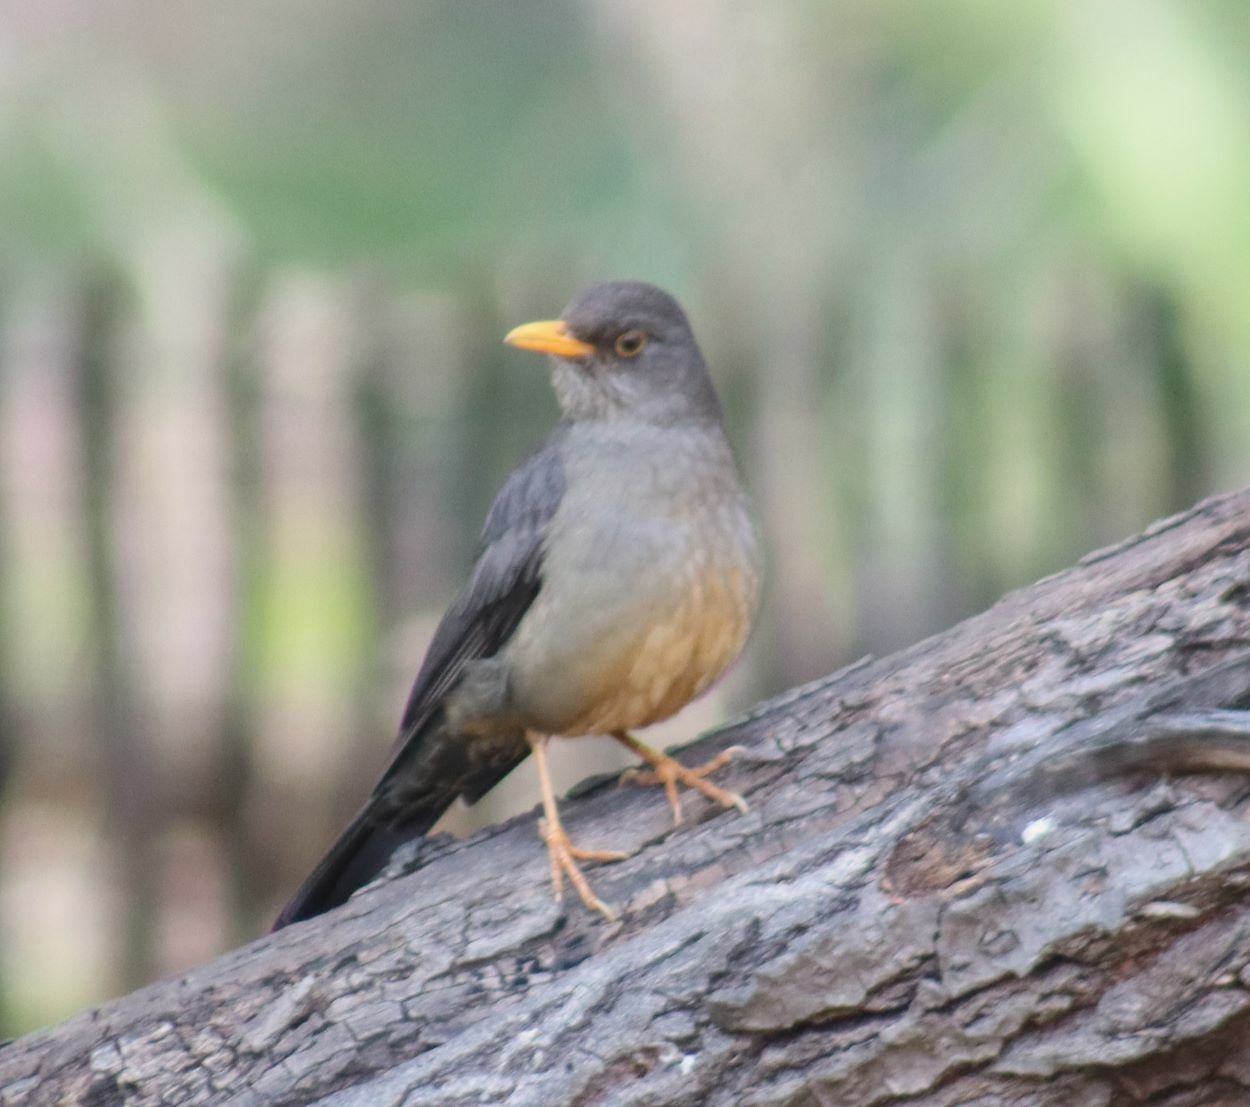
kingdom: Animalia
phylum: Chordata
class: Aves
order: Passeriformes
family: Turdidae
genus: Turdus
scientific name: Turdus smithi
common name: Karoo thrush
